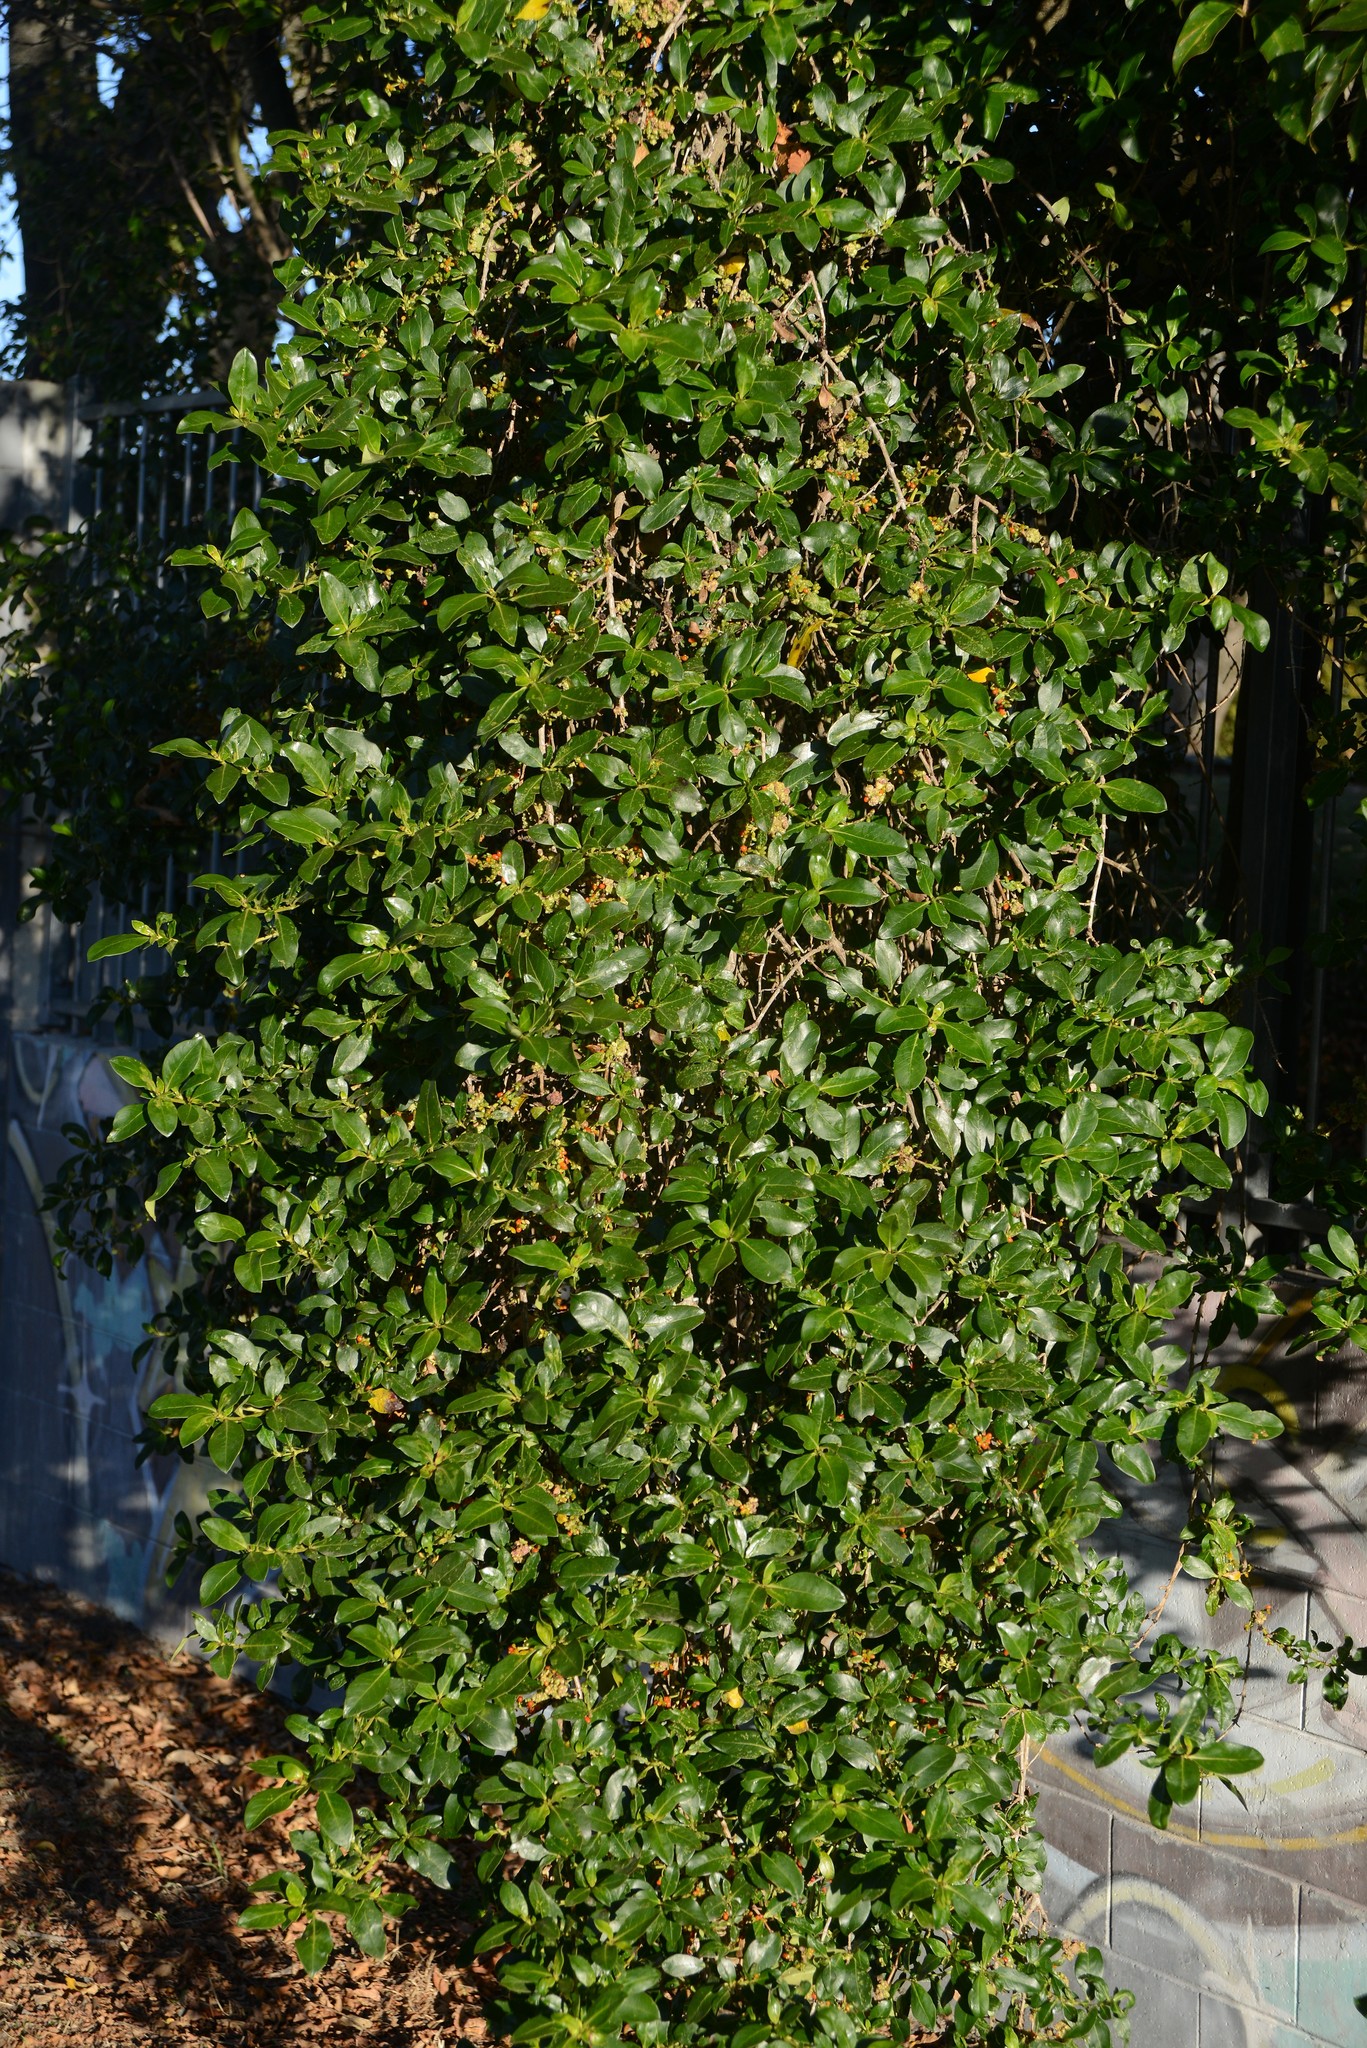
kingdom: Plantae
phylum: Tracheophyta
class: Magnoliopsida
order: Gentianales
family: Rubiaceae
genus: Coprosma
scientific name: Coprosma robusta
